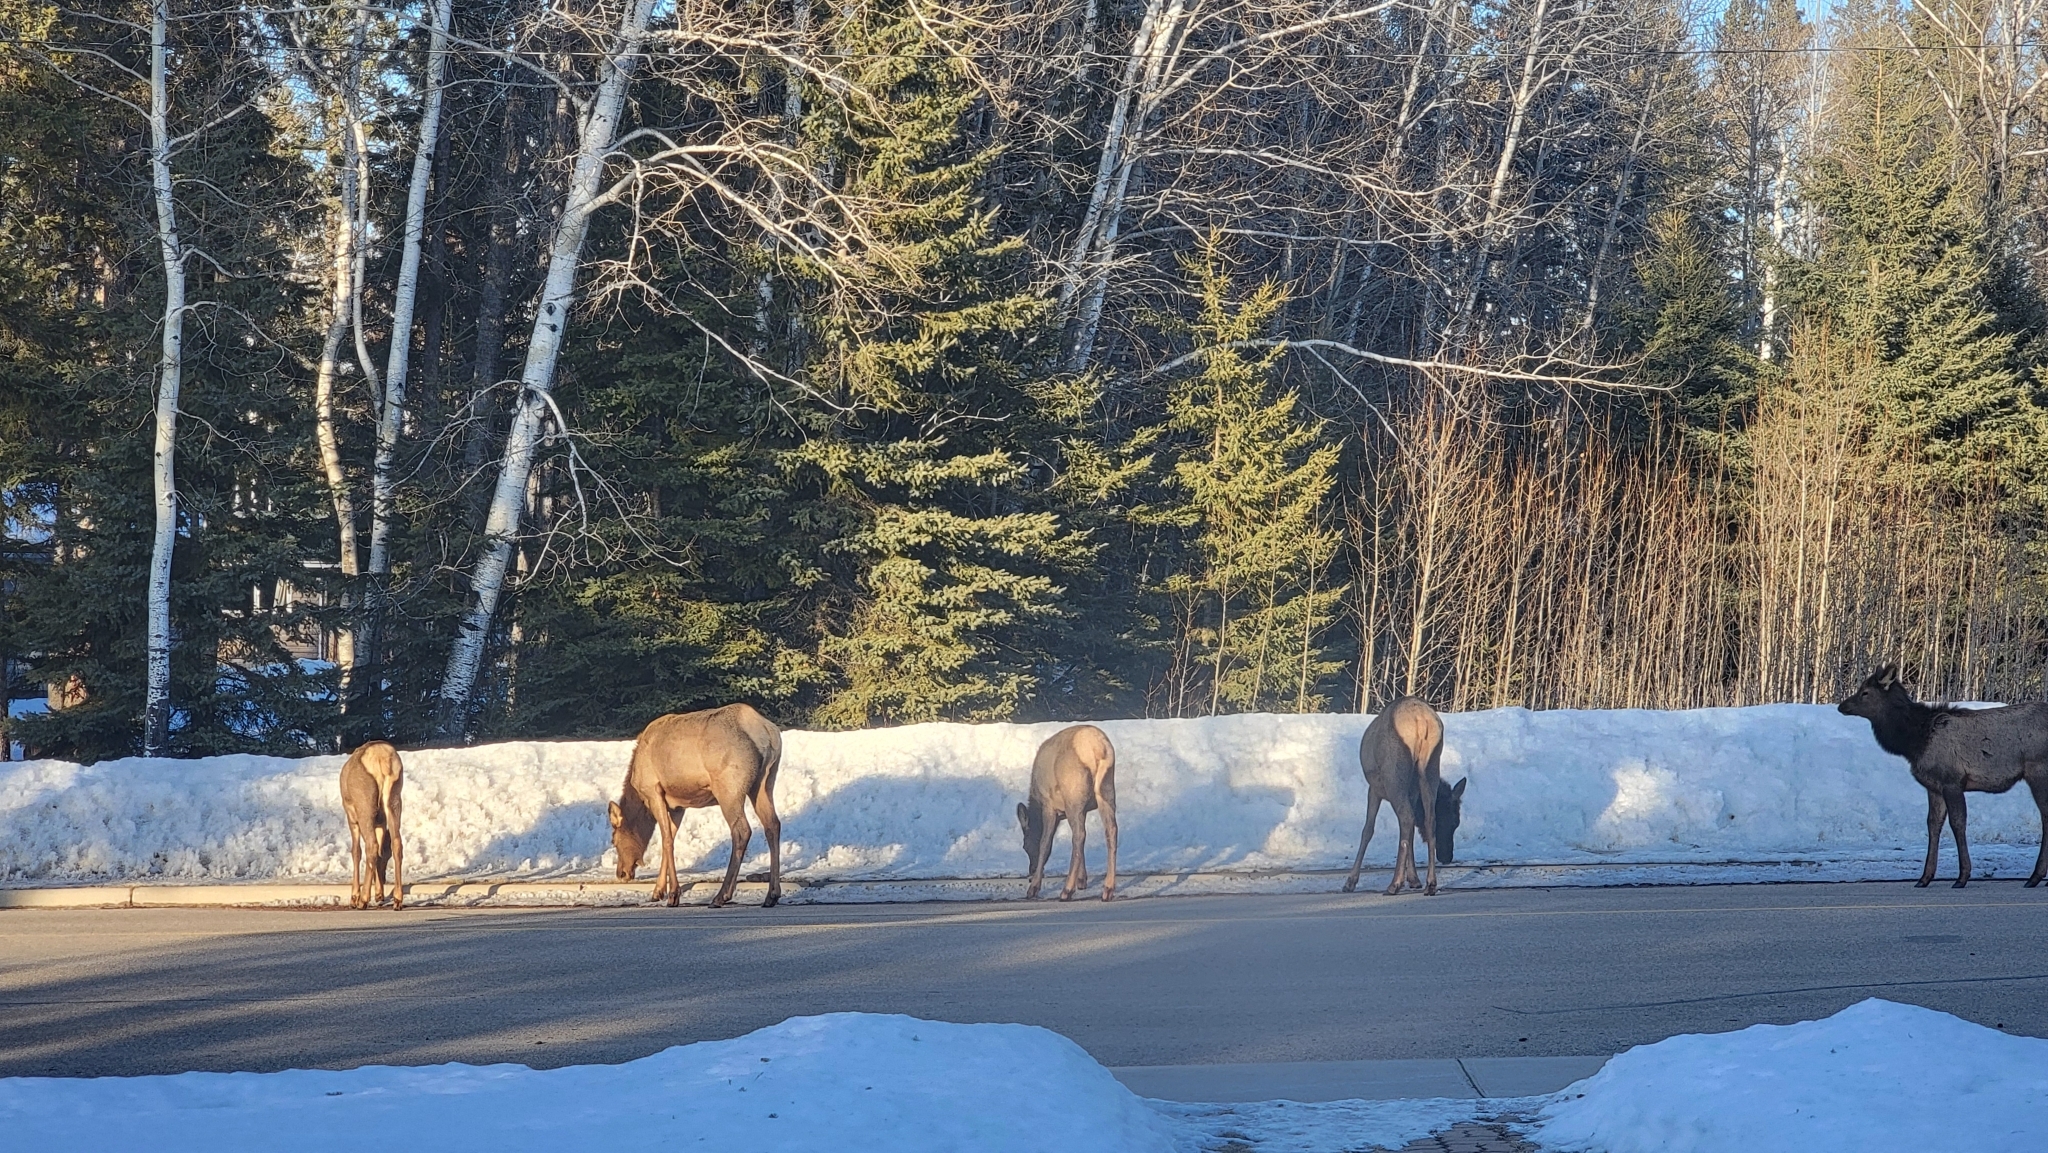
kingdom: Animalia
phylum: Chordata
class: Mammalia
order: Artiodactyla
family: Cervidae
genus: Cervus
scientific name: Cervus elaphus
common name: Red deer
